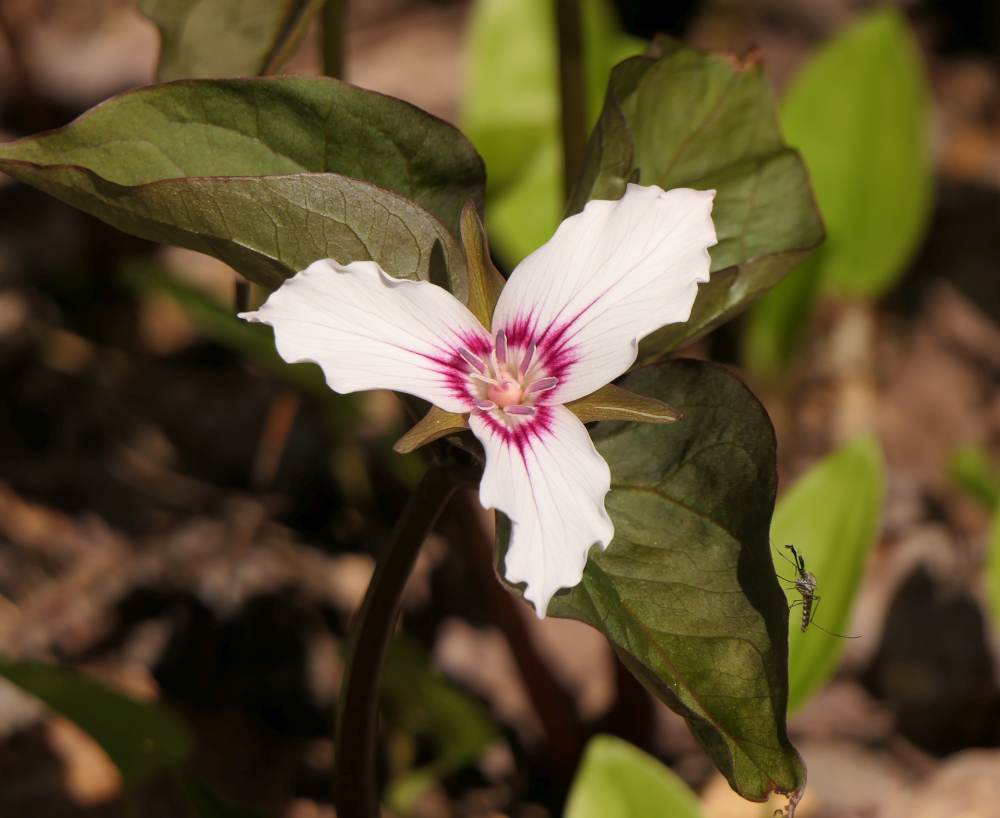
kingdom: Plantae
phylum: Tracheophyta
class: Liliopsida
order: Liliales
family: Melanthiaceae
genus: Trillium
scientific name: Trillium undulatum
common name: Paint trillium
